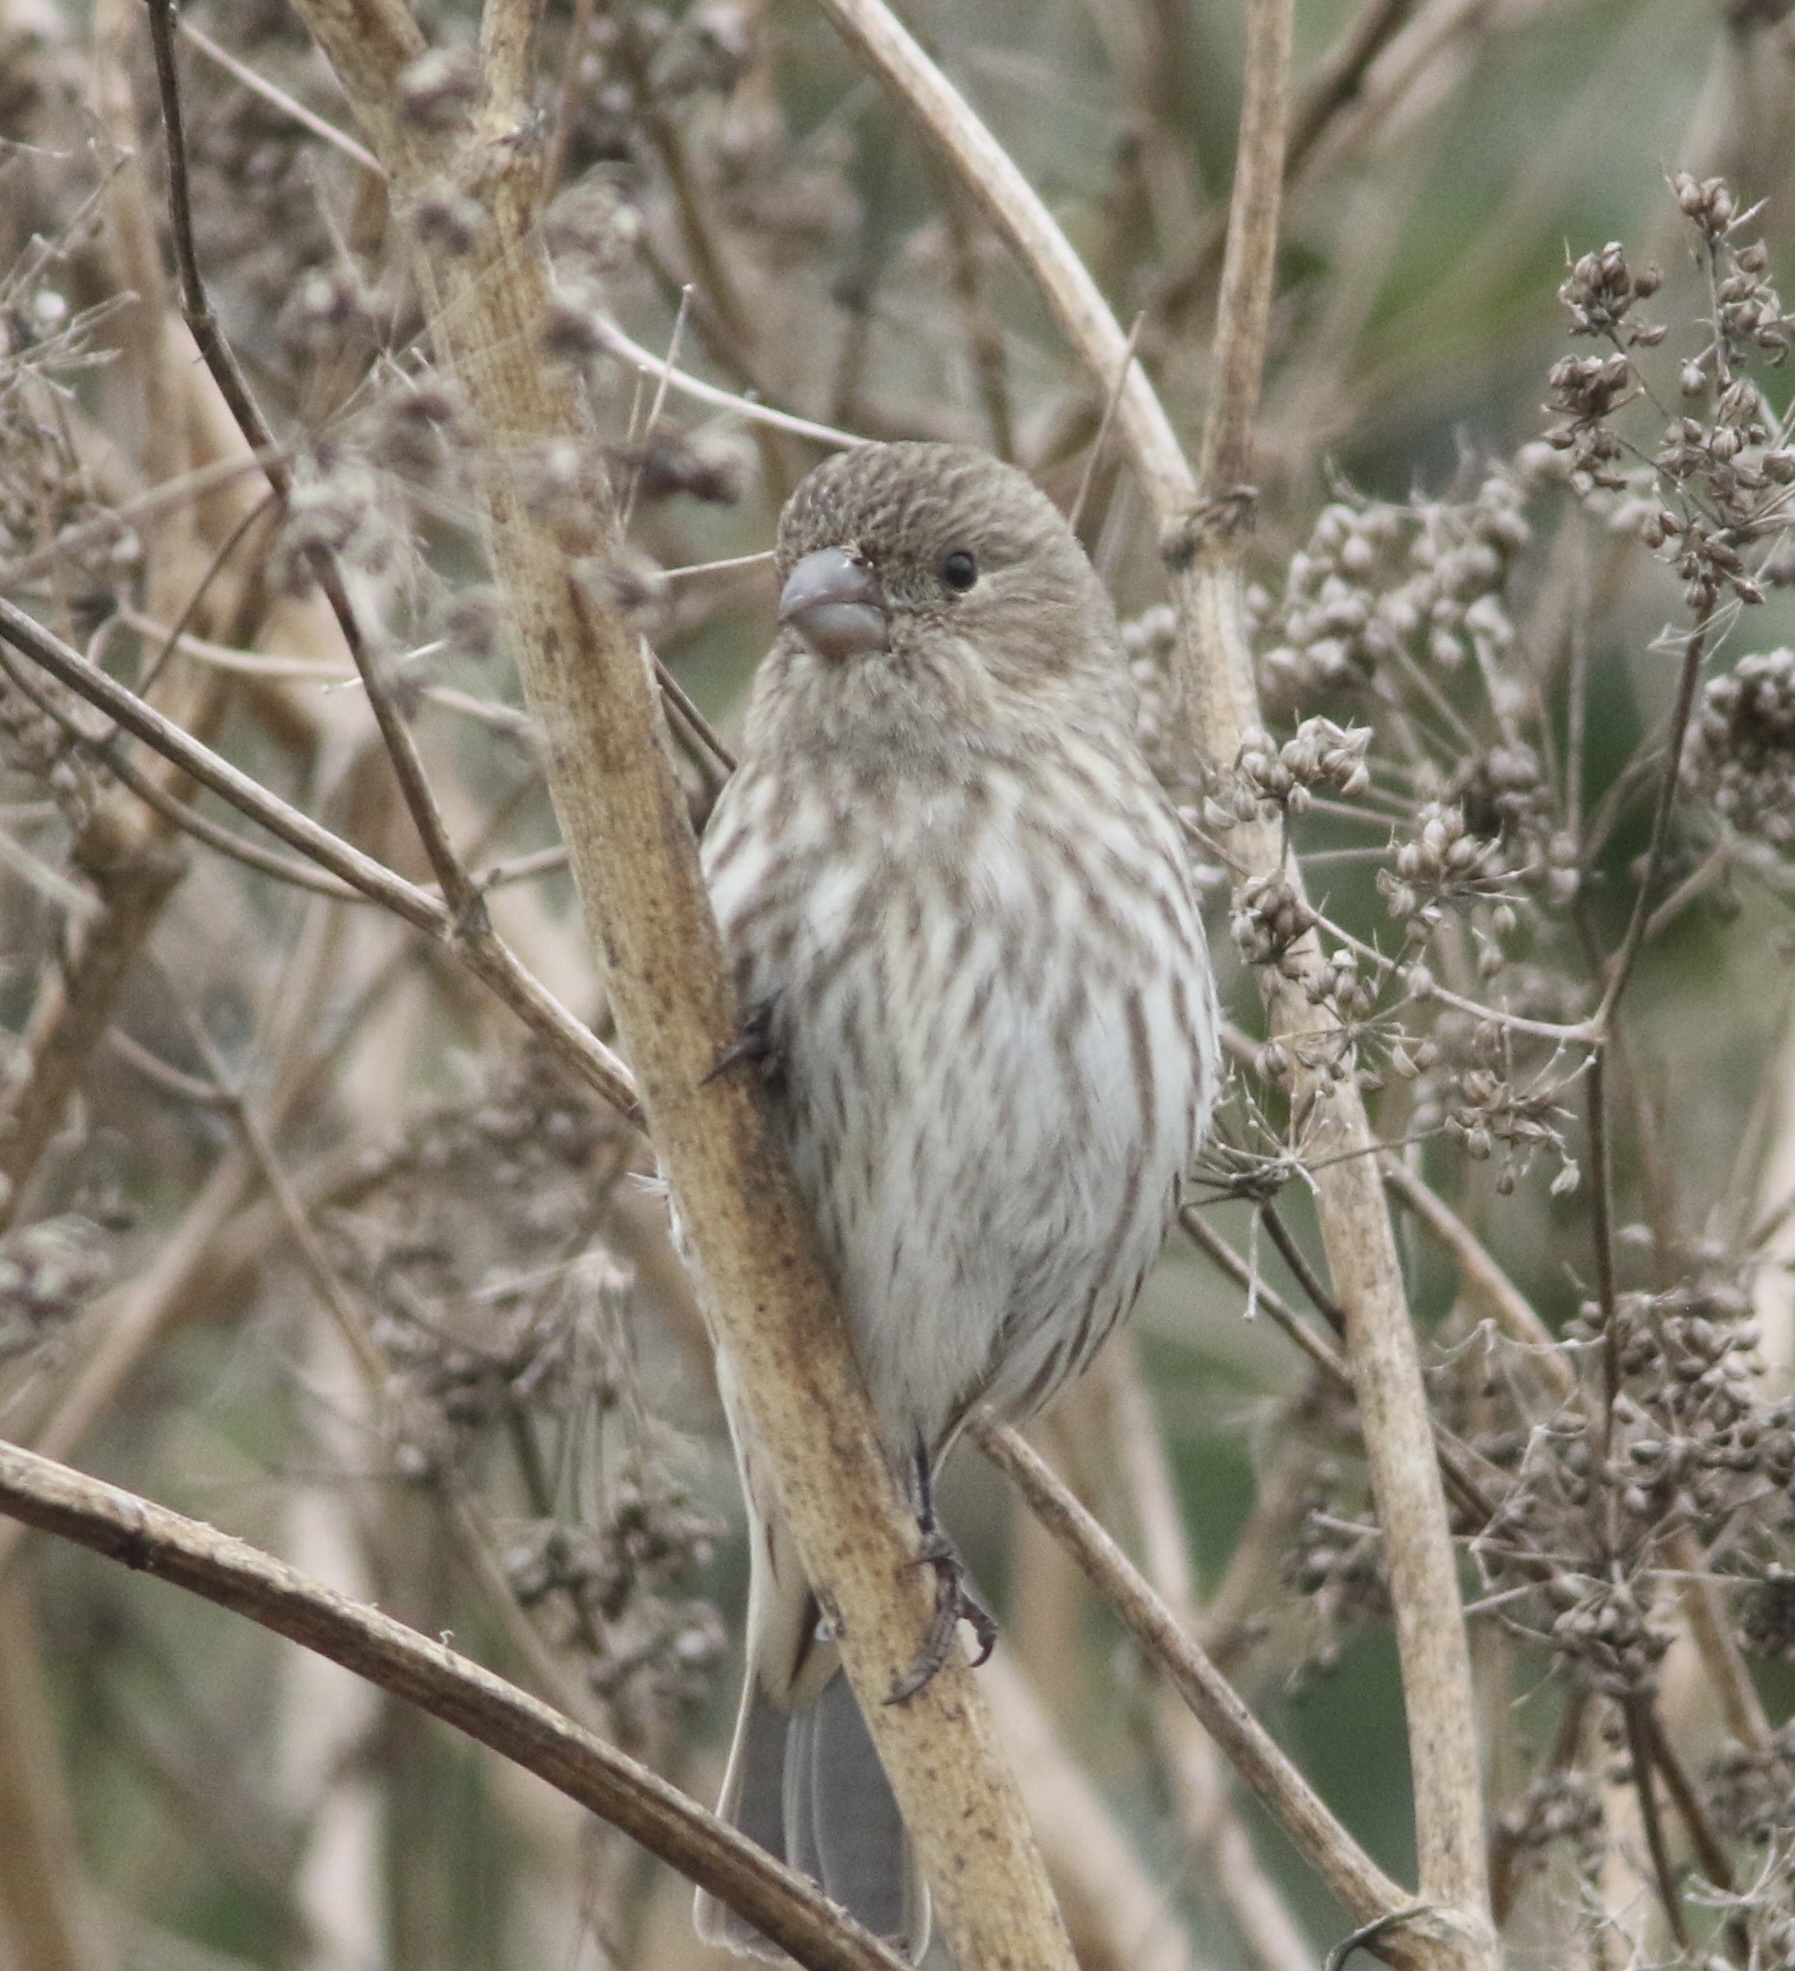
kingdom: Animalia
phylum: Chordata
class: Aves
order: Passeriformes
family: Fringillidae
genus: Haemorhous
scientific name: Haemorhous mexicanus
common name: House finch
